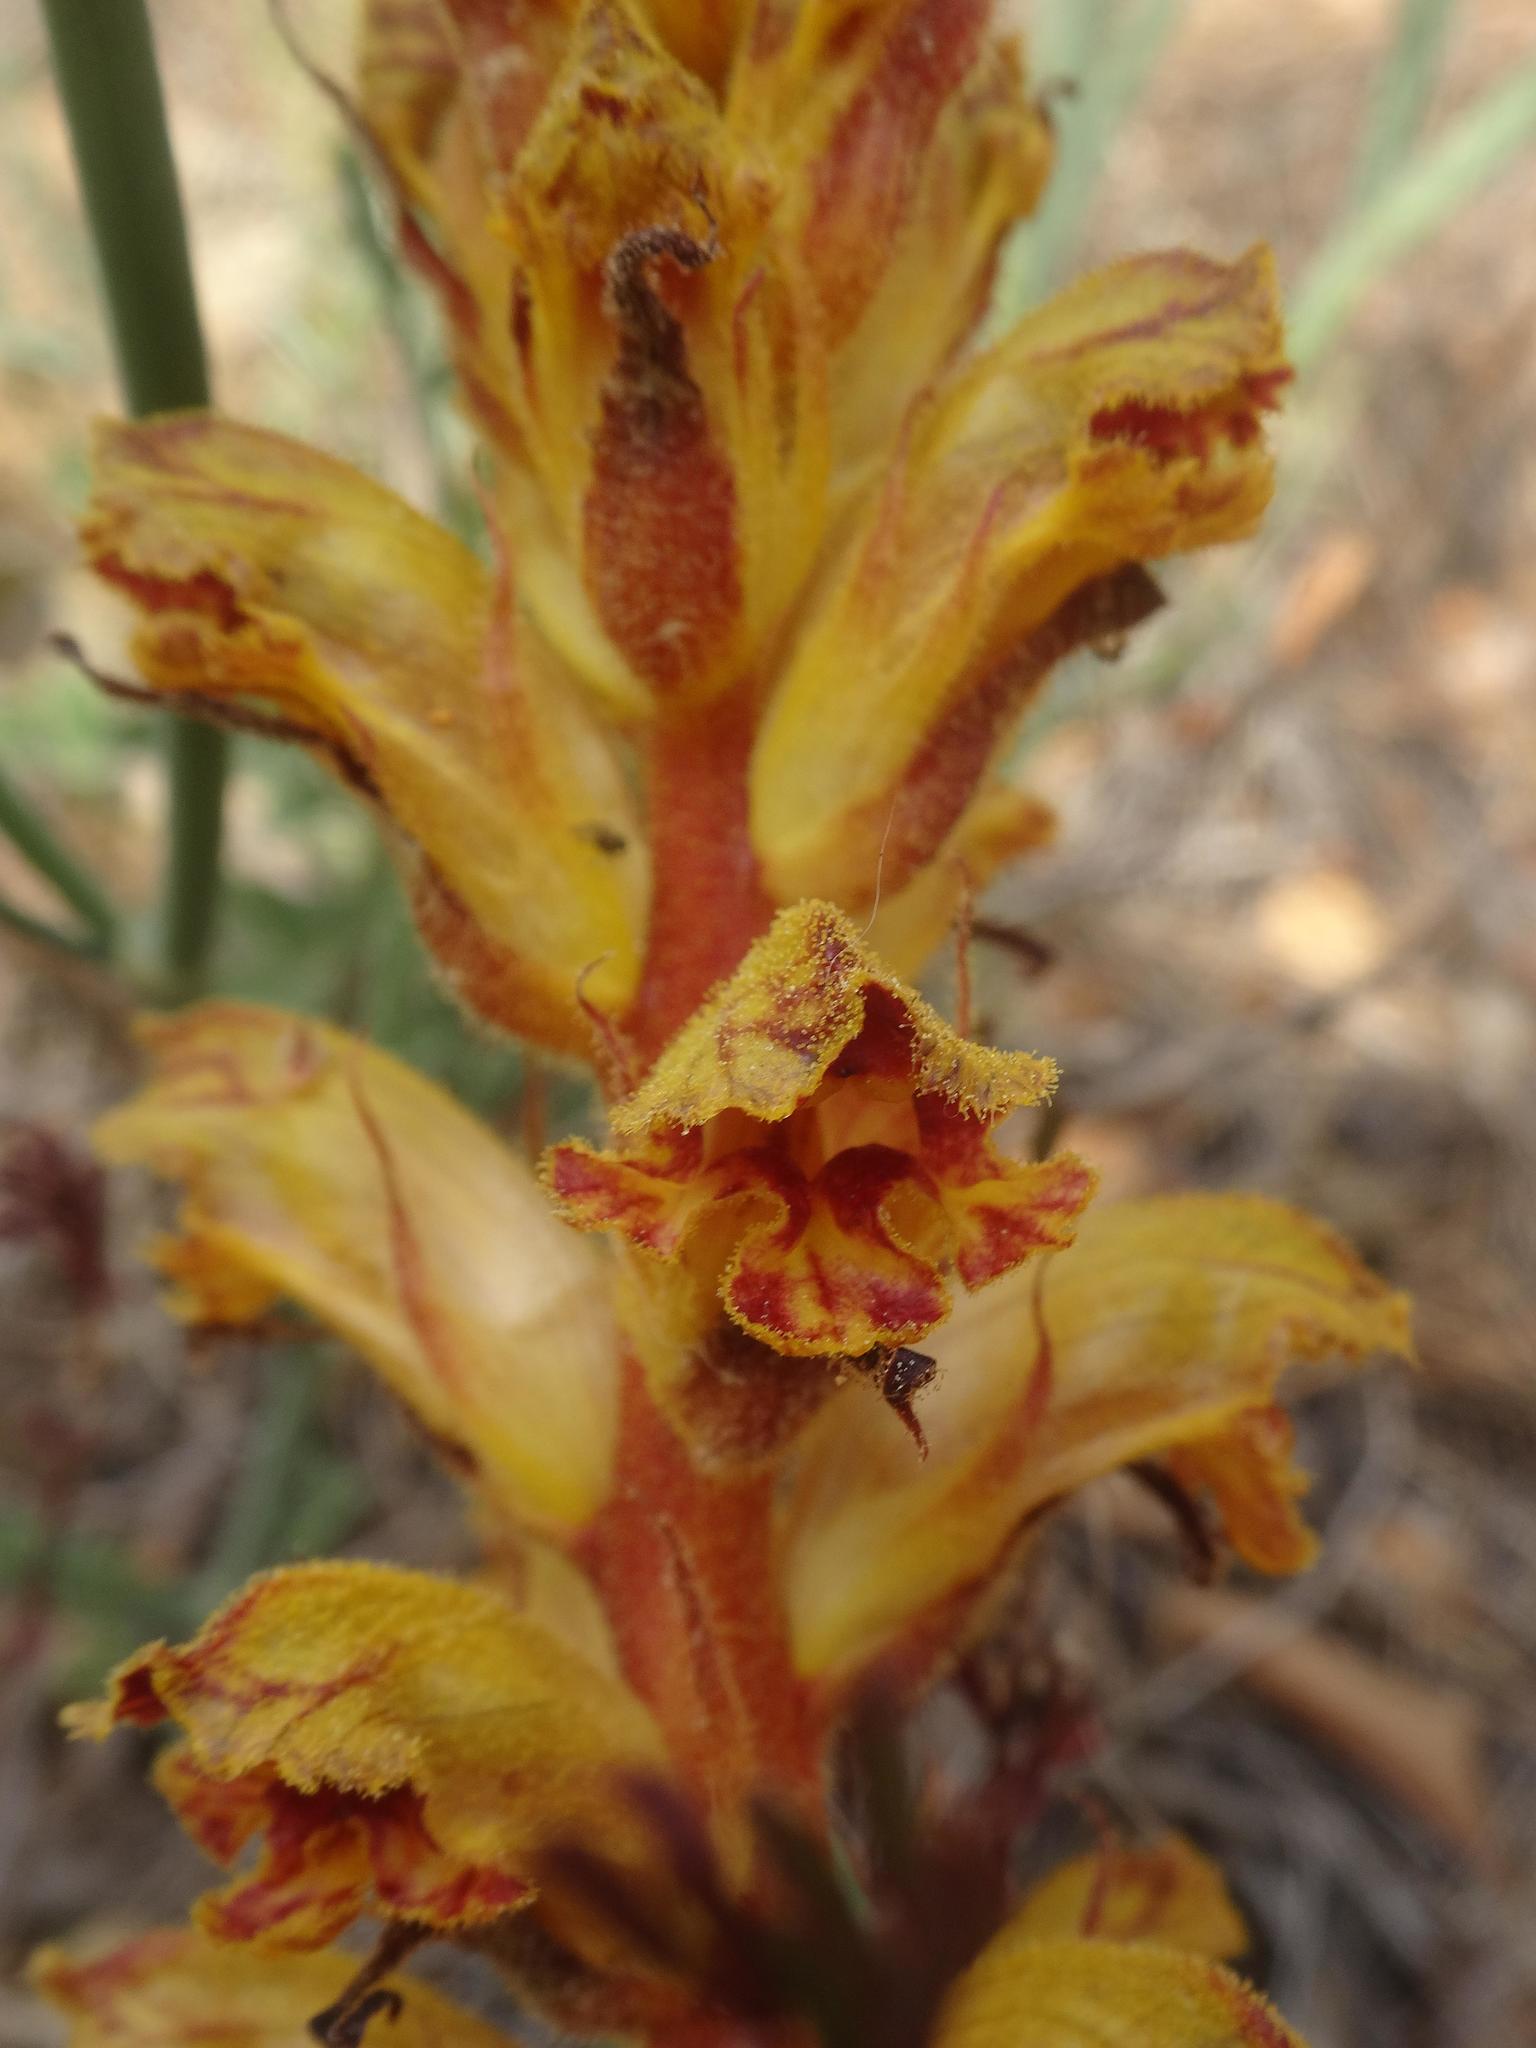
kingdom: Plantae
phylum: Tracheophyta
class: Magnoliopsida
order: Lamiales
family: Orobanchaceae
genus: Orobanche
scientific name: Orobanche gracilis
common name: Slender broomrape
